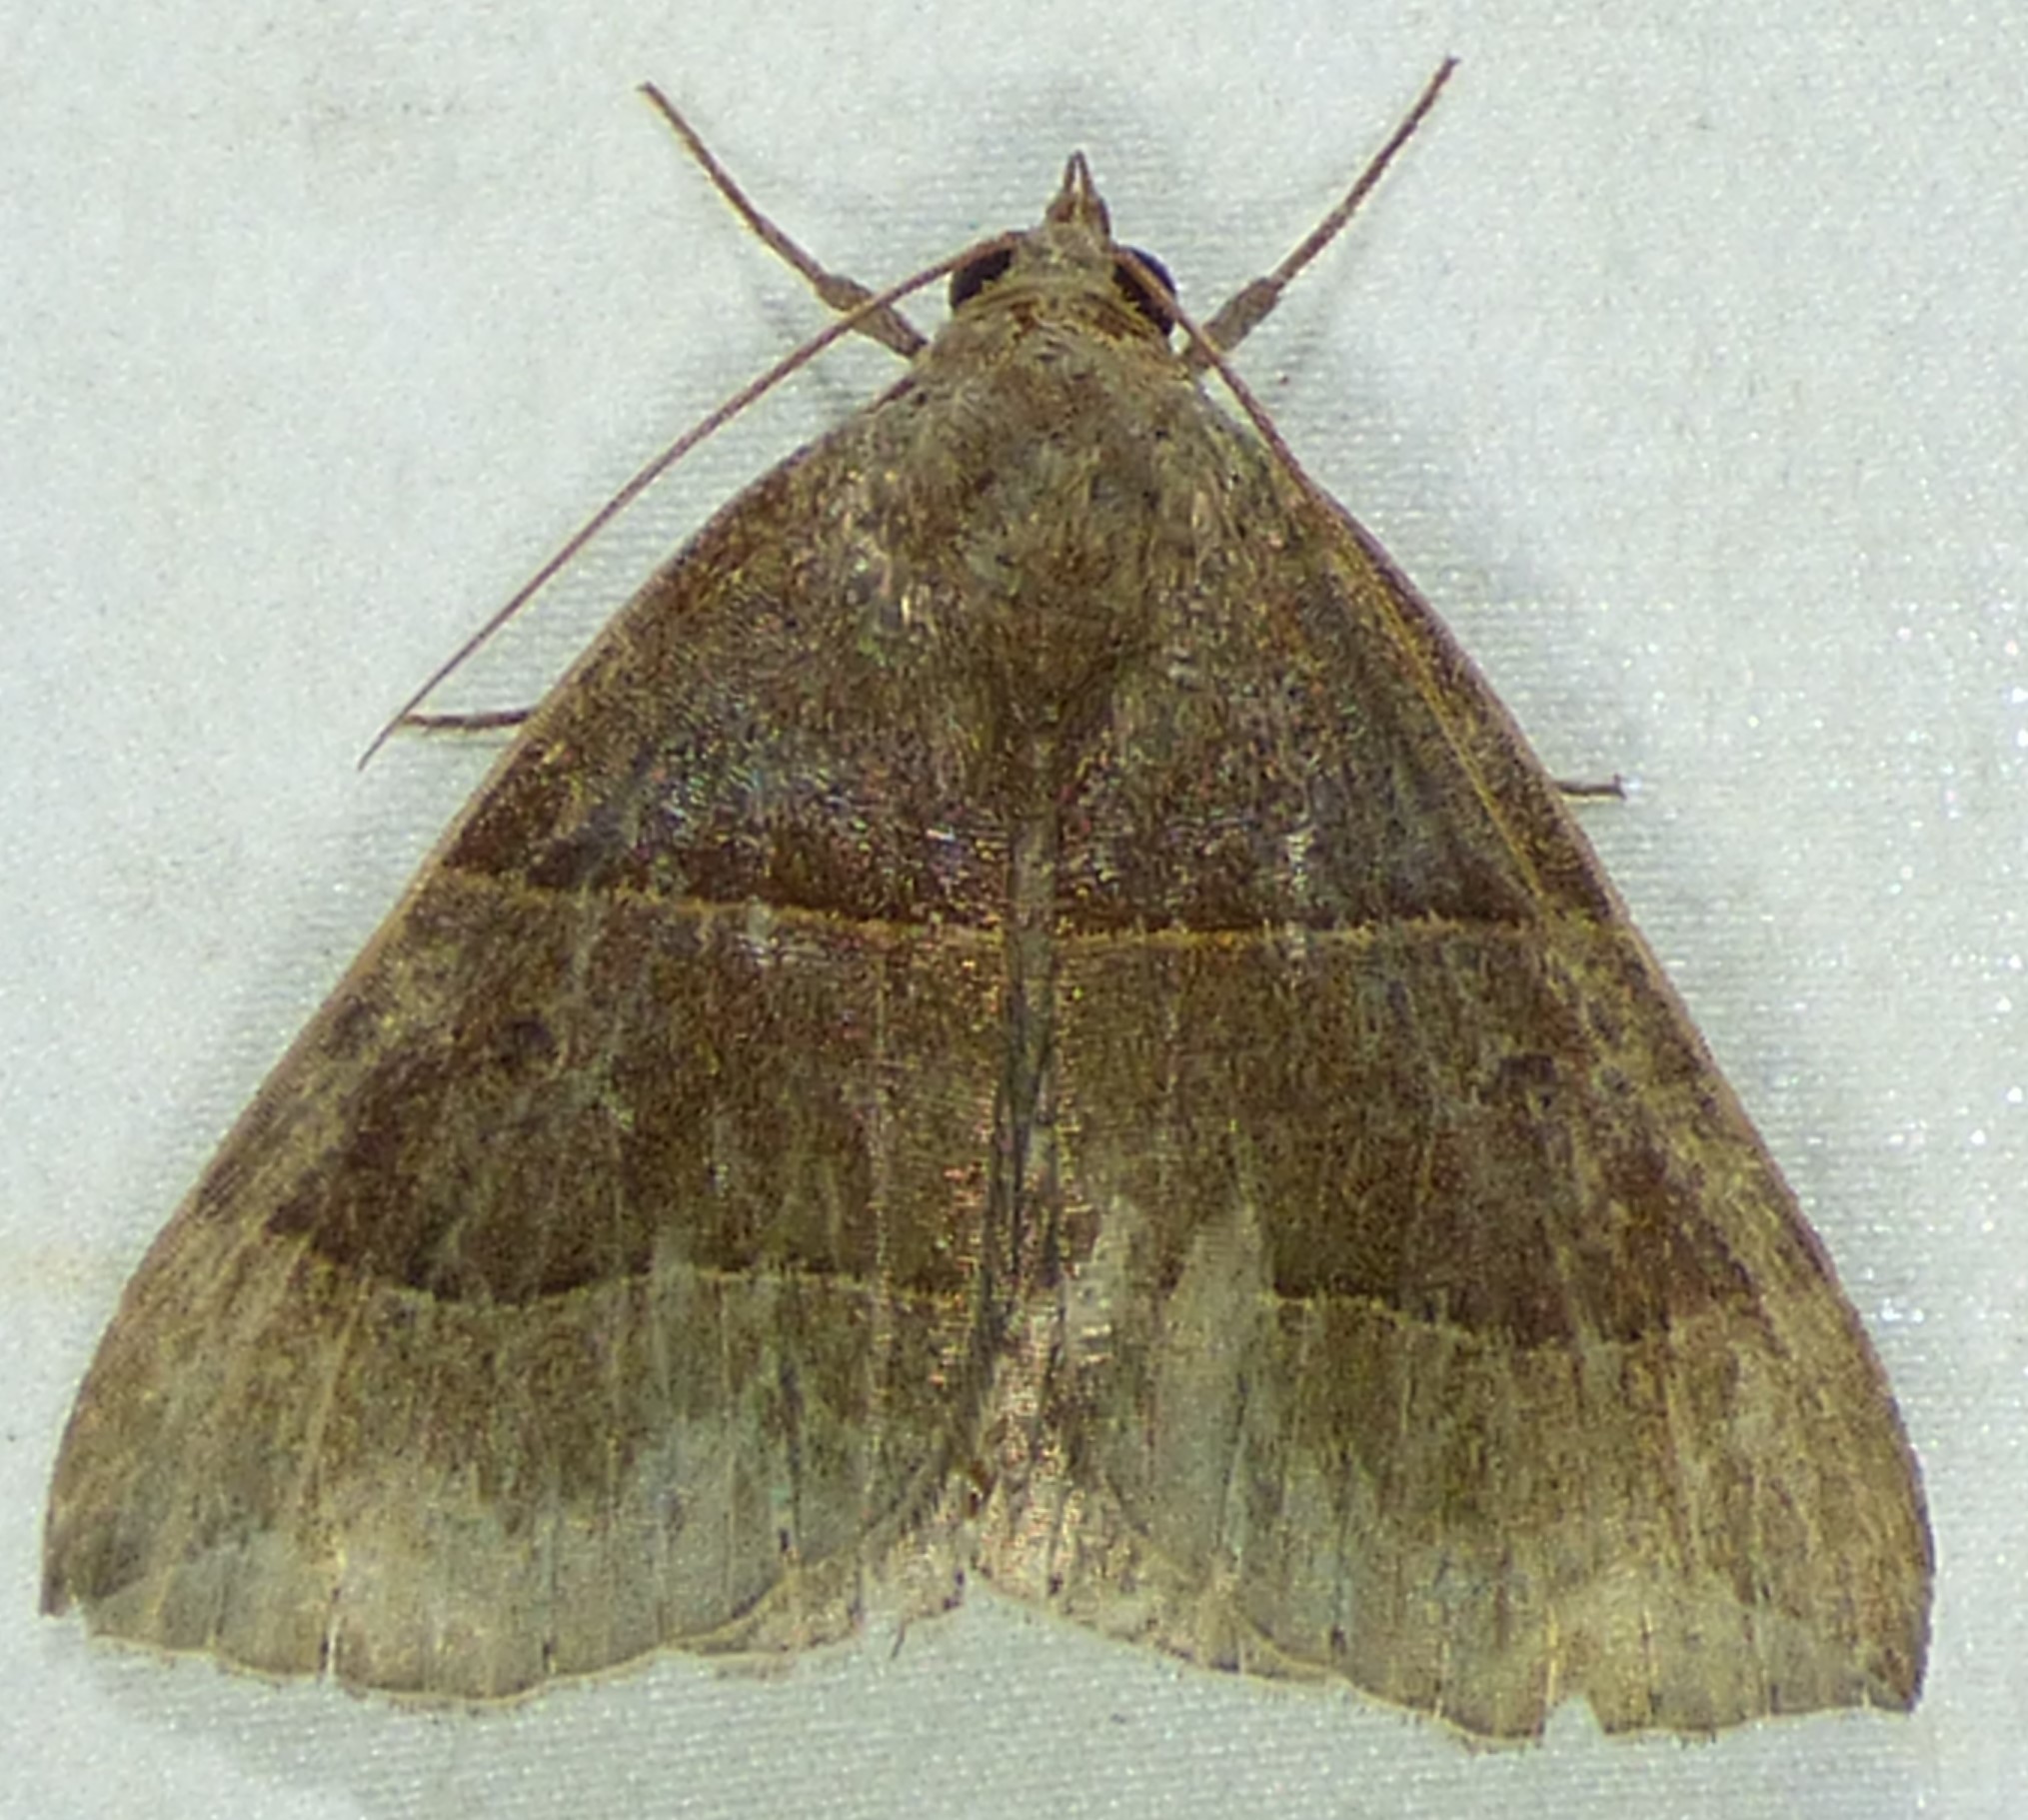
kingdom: Animalia
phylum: Arthropoda
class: Insecta
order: Lepidoptera
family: Erebidae
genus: Parallelia
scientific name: Parallelia bistriaris
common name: Maple looper moth
